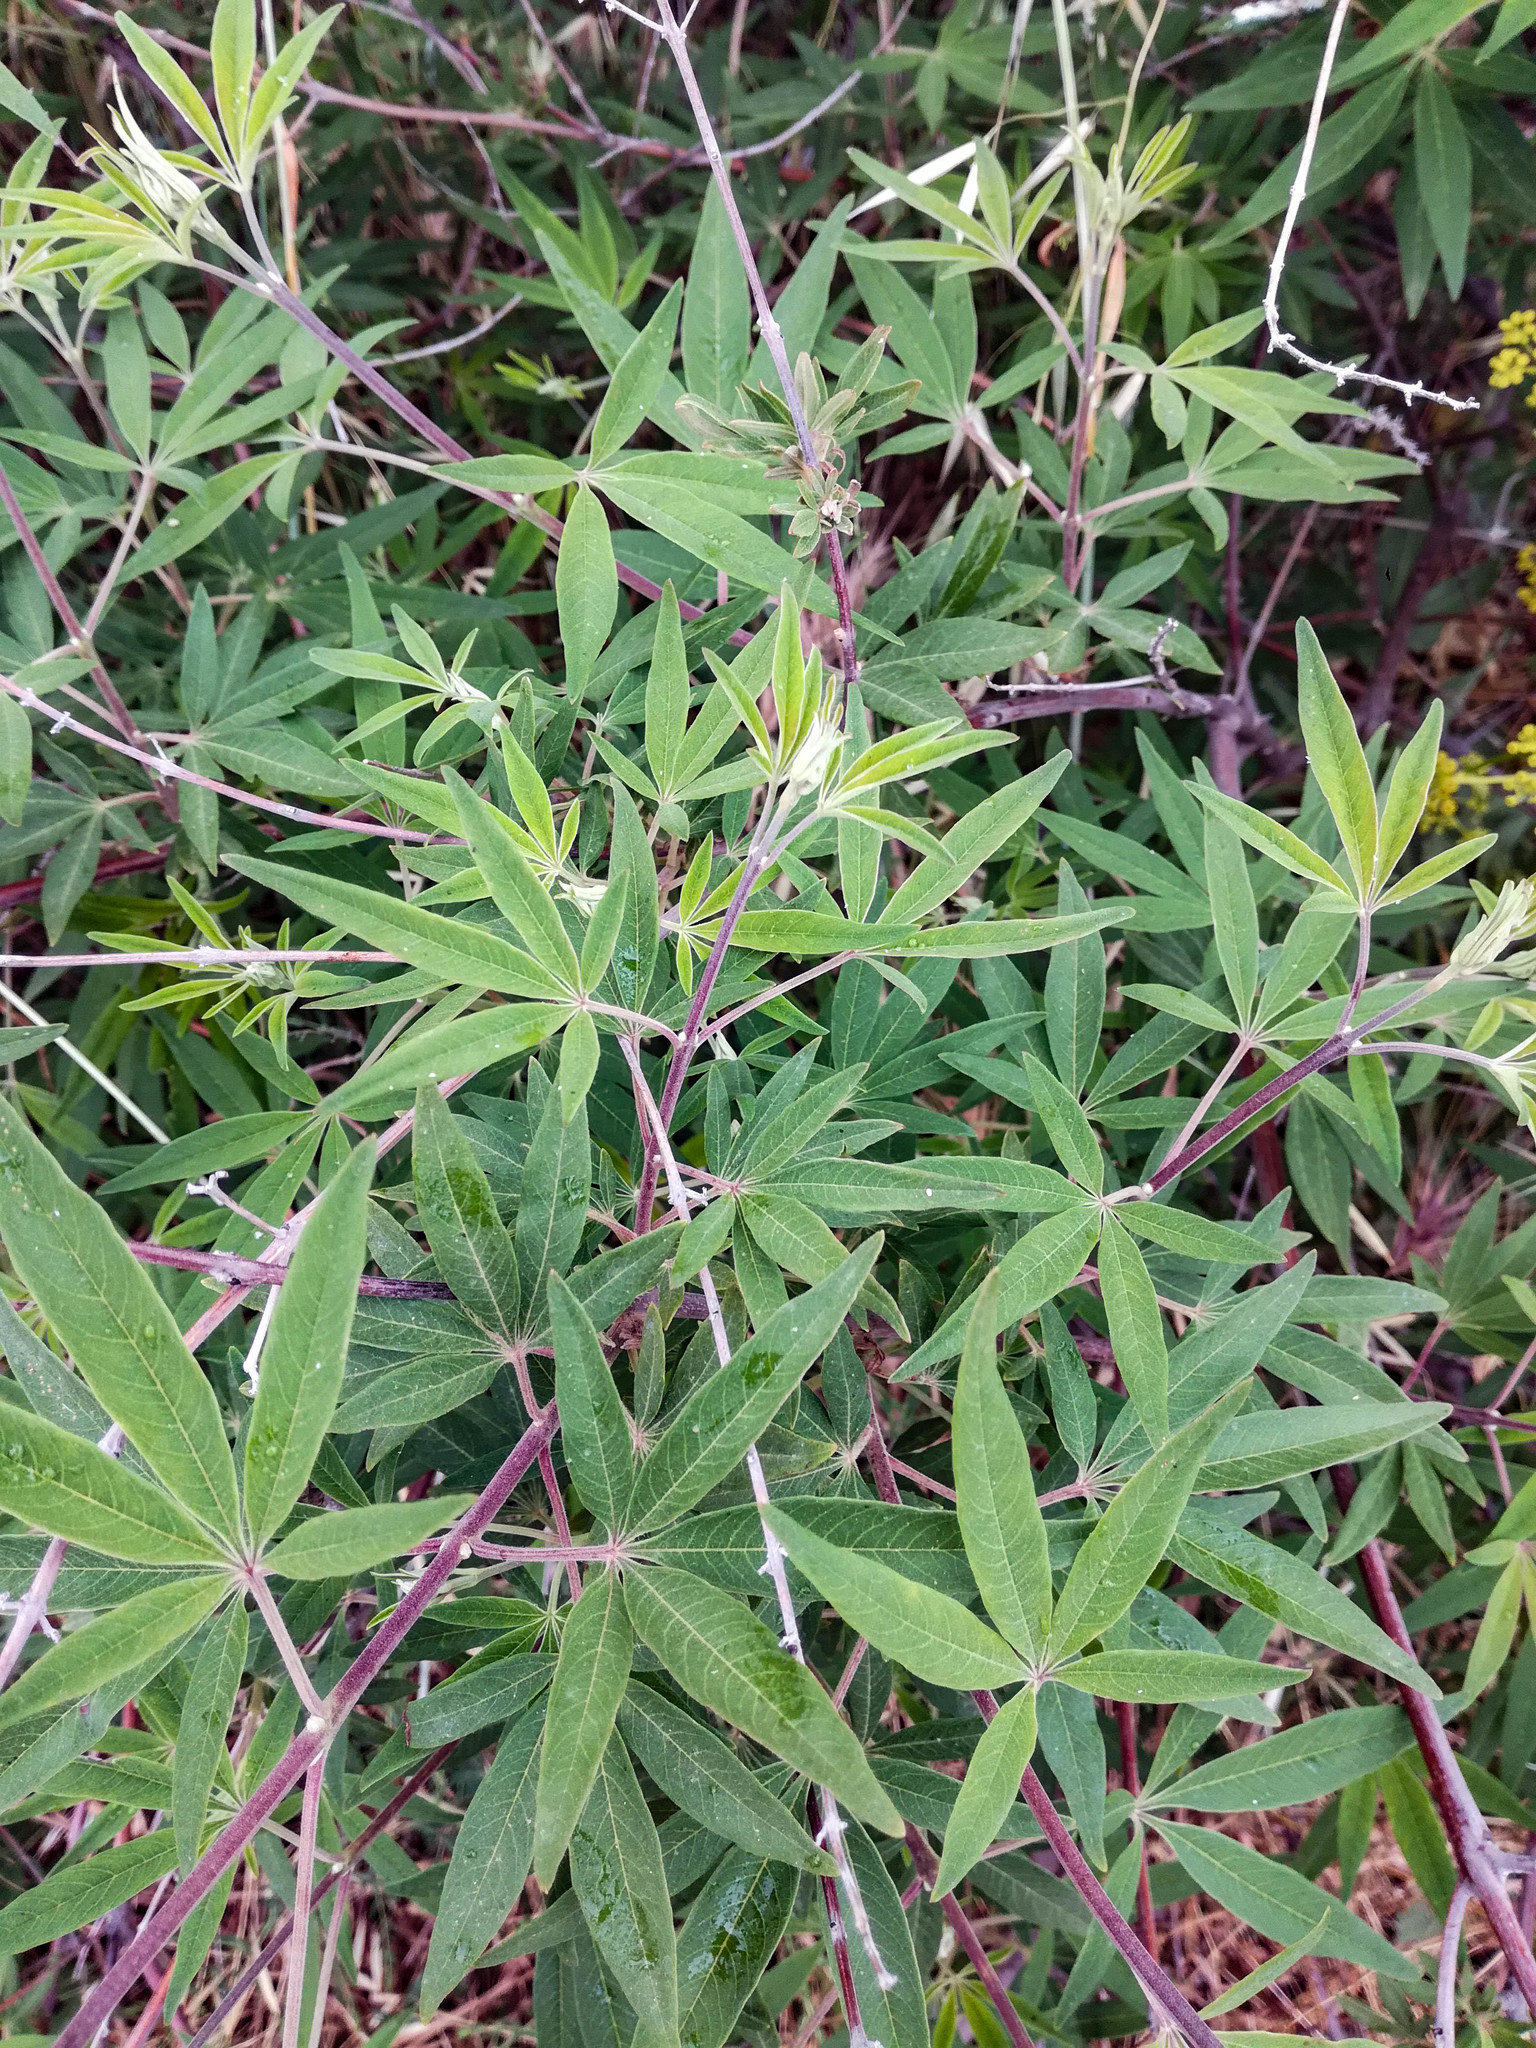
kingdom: Plantae
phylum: Tracheophyta
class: Magnoliopsida
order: Lamiales
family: Lamiaceae
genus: Vitex
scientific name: Vitex agnus-castus
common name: Chasteberry
